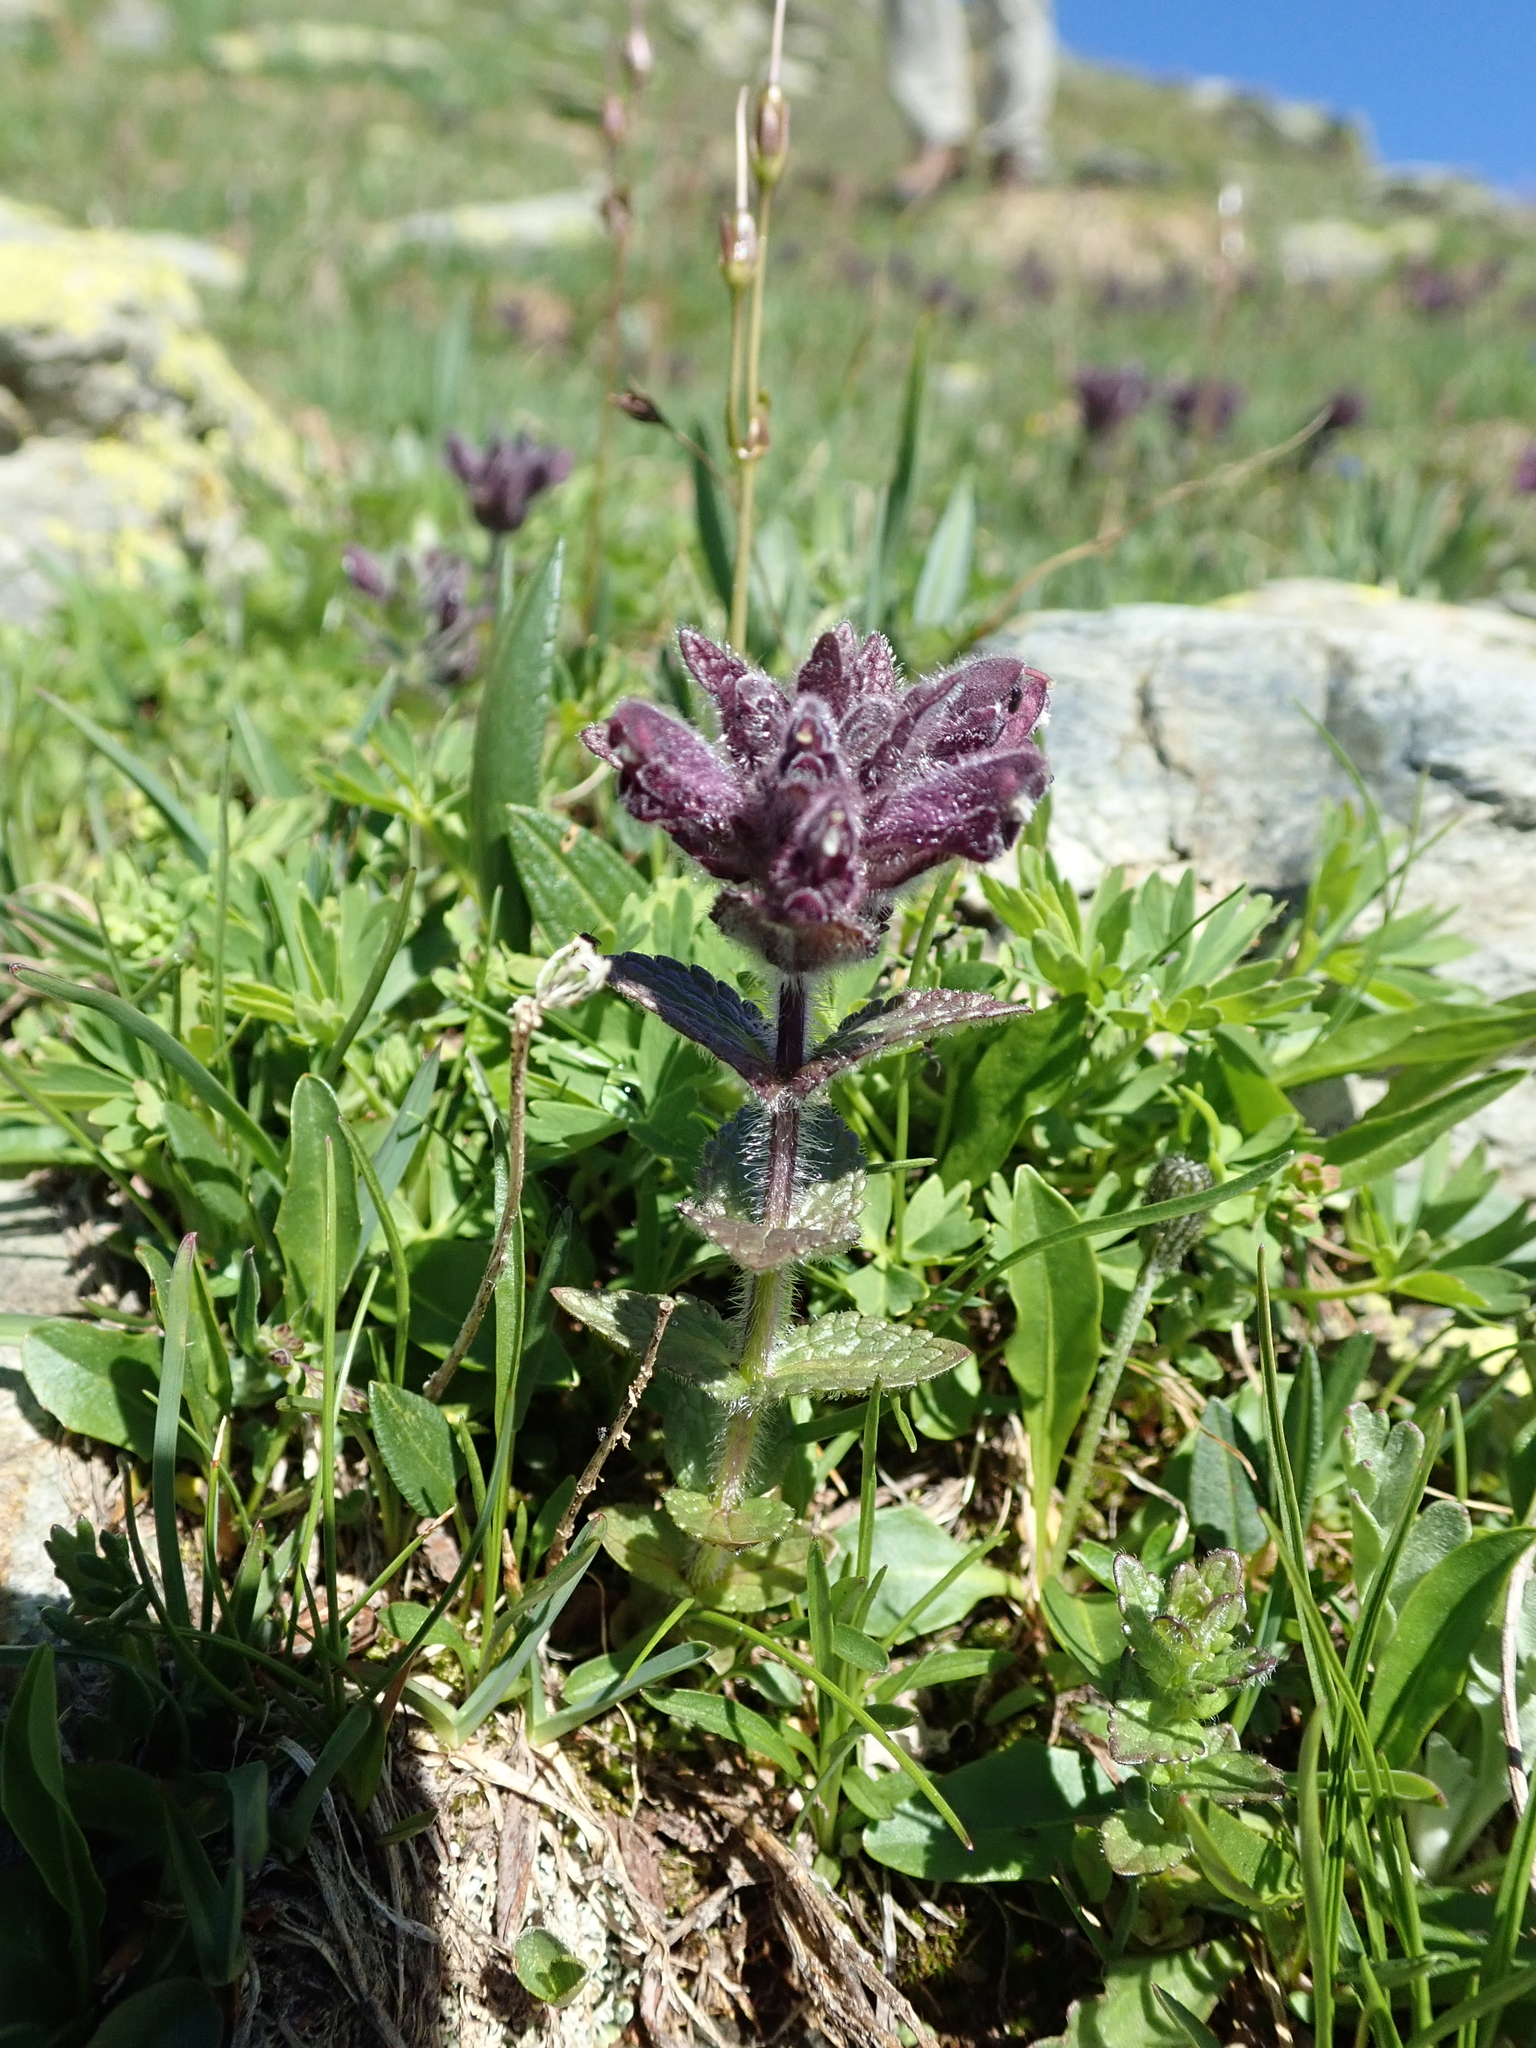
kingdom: Plantae
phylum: Tracheophyta
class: Magnoliopsida
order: Lamiales
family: Orobanchaceae
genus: Bartsia
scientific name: Bartsia alpina
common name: Alpine bartsia
